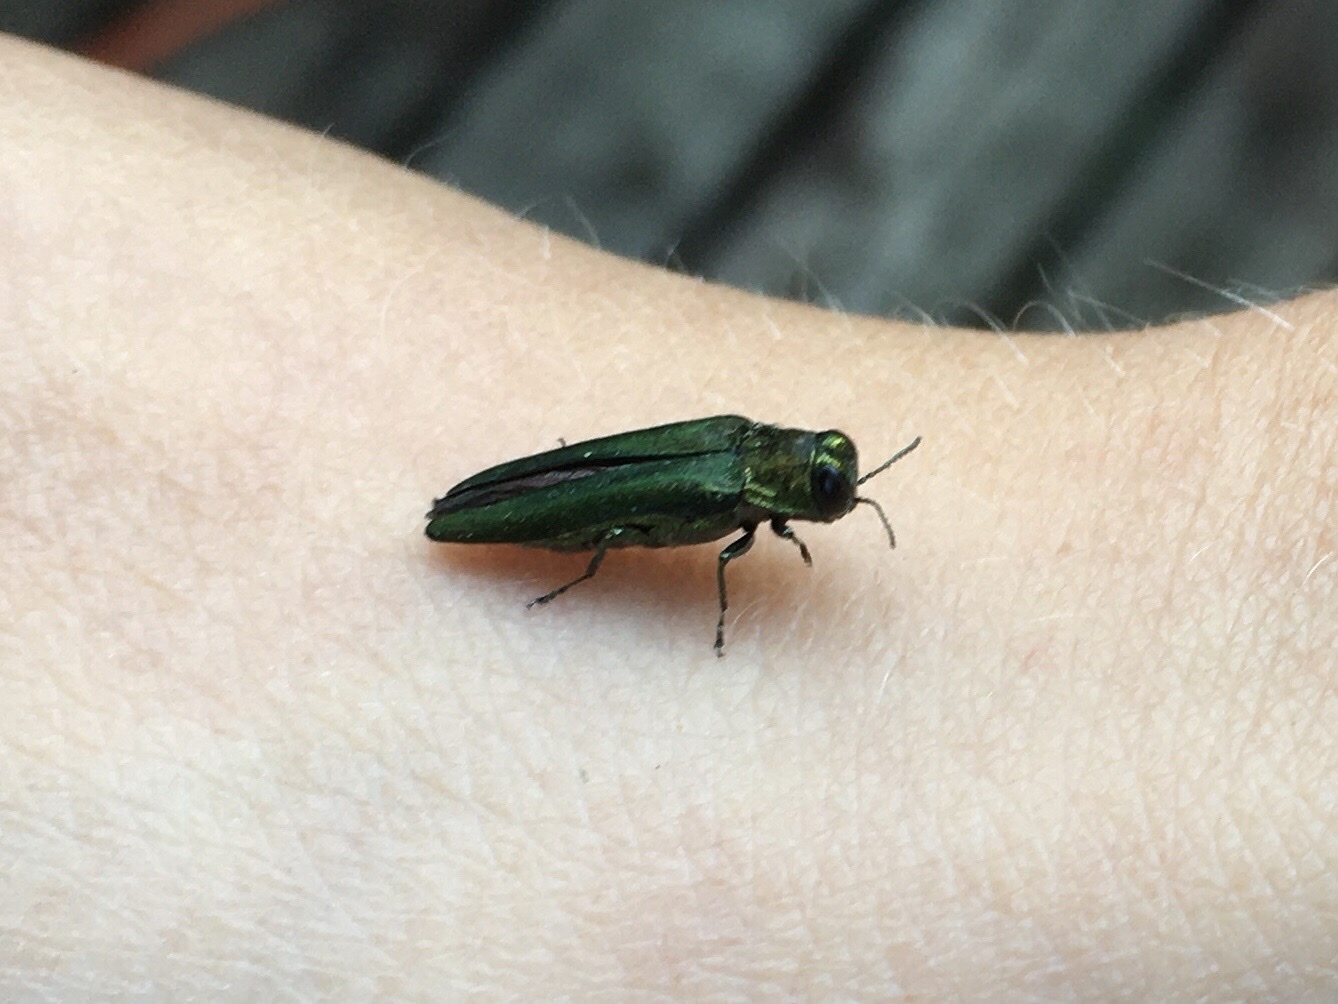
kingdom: Animalia
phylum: Arthropoda
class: Insecta
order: Coleoptera
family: Buprestidae
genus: Agrilus
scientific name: Agrilus planipennis
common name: Emerald ash borer
